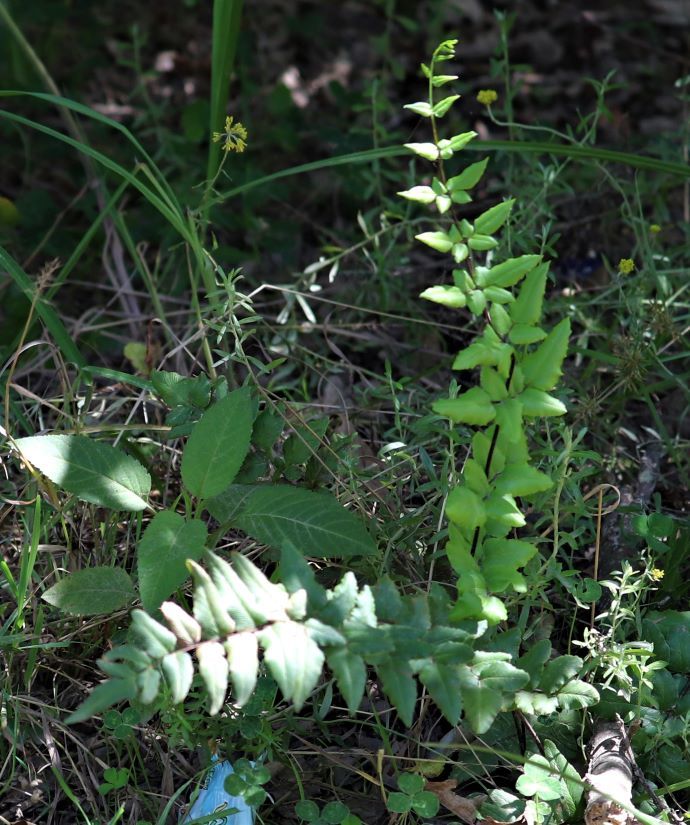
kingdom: Plantae
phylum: Tracheophyta
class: Polypodiopsida
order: Polypodiales
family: Pteridaceae
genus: Cheilanthes
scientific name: Cheilanthes viridis
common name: Green cliffbrake
